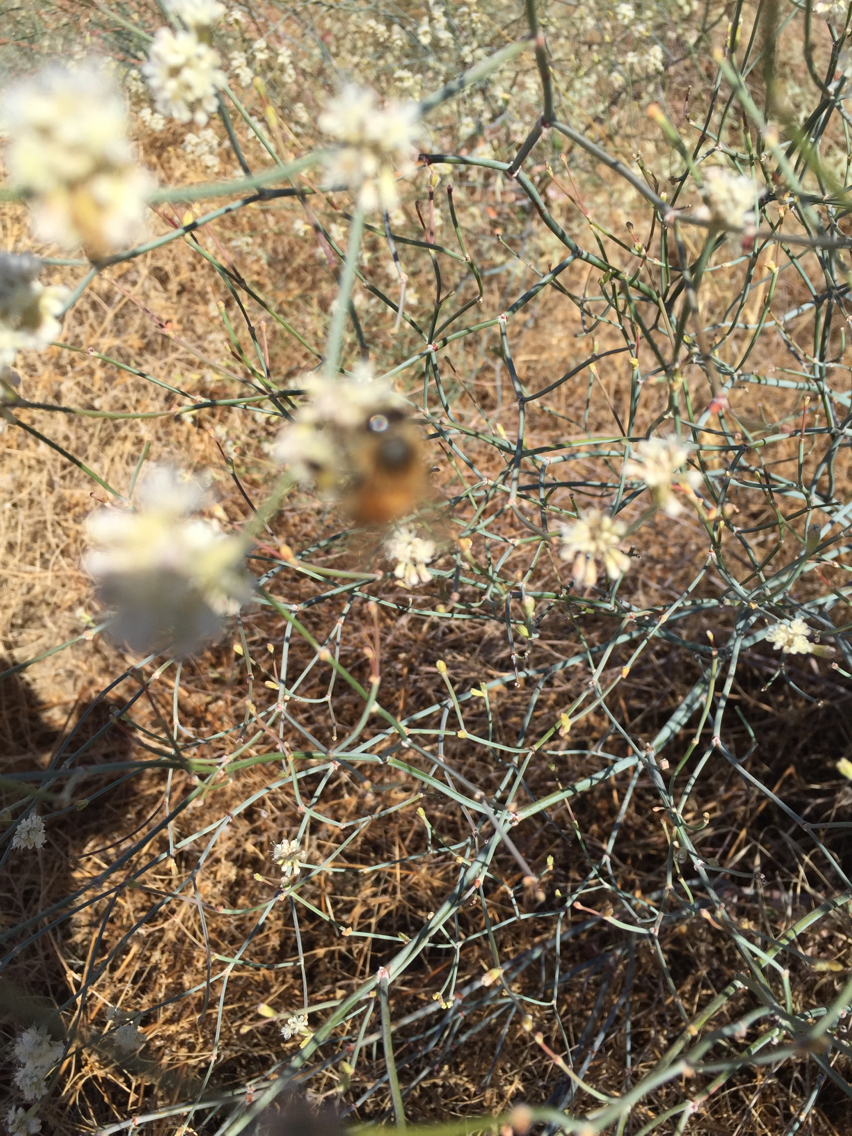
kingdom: Animalia
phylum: Arthropoda
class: Insecta
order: Hymenoptera
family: Apidae
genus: Apis
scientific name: Apis mellifera
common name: Honey bee
